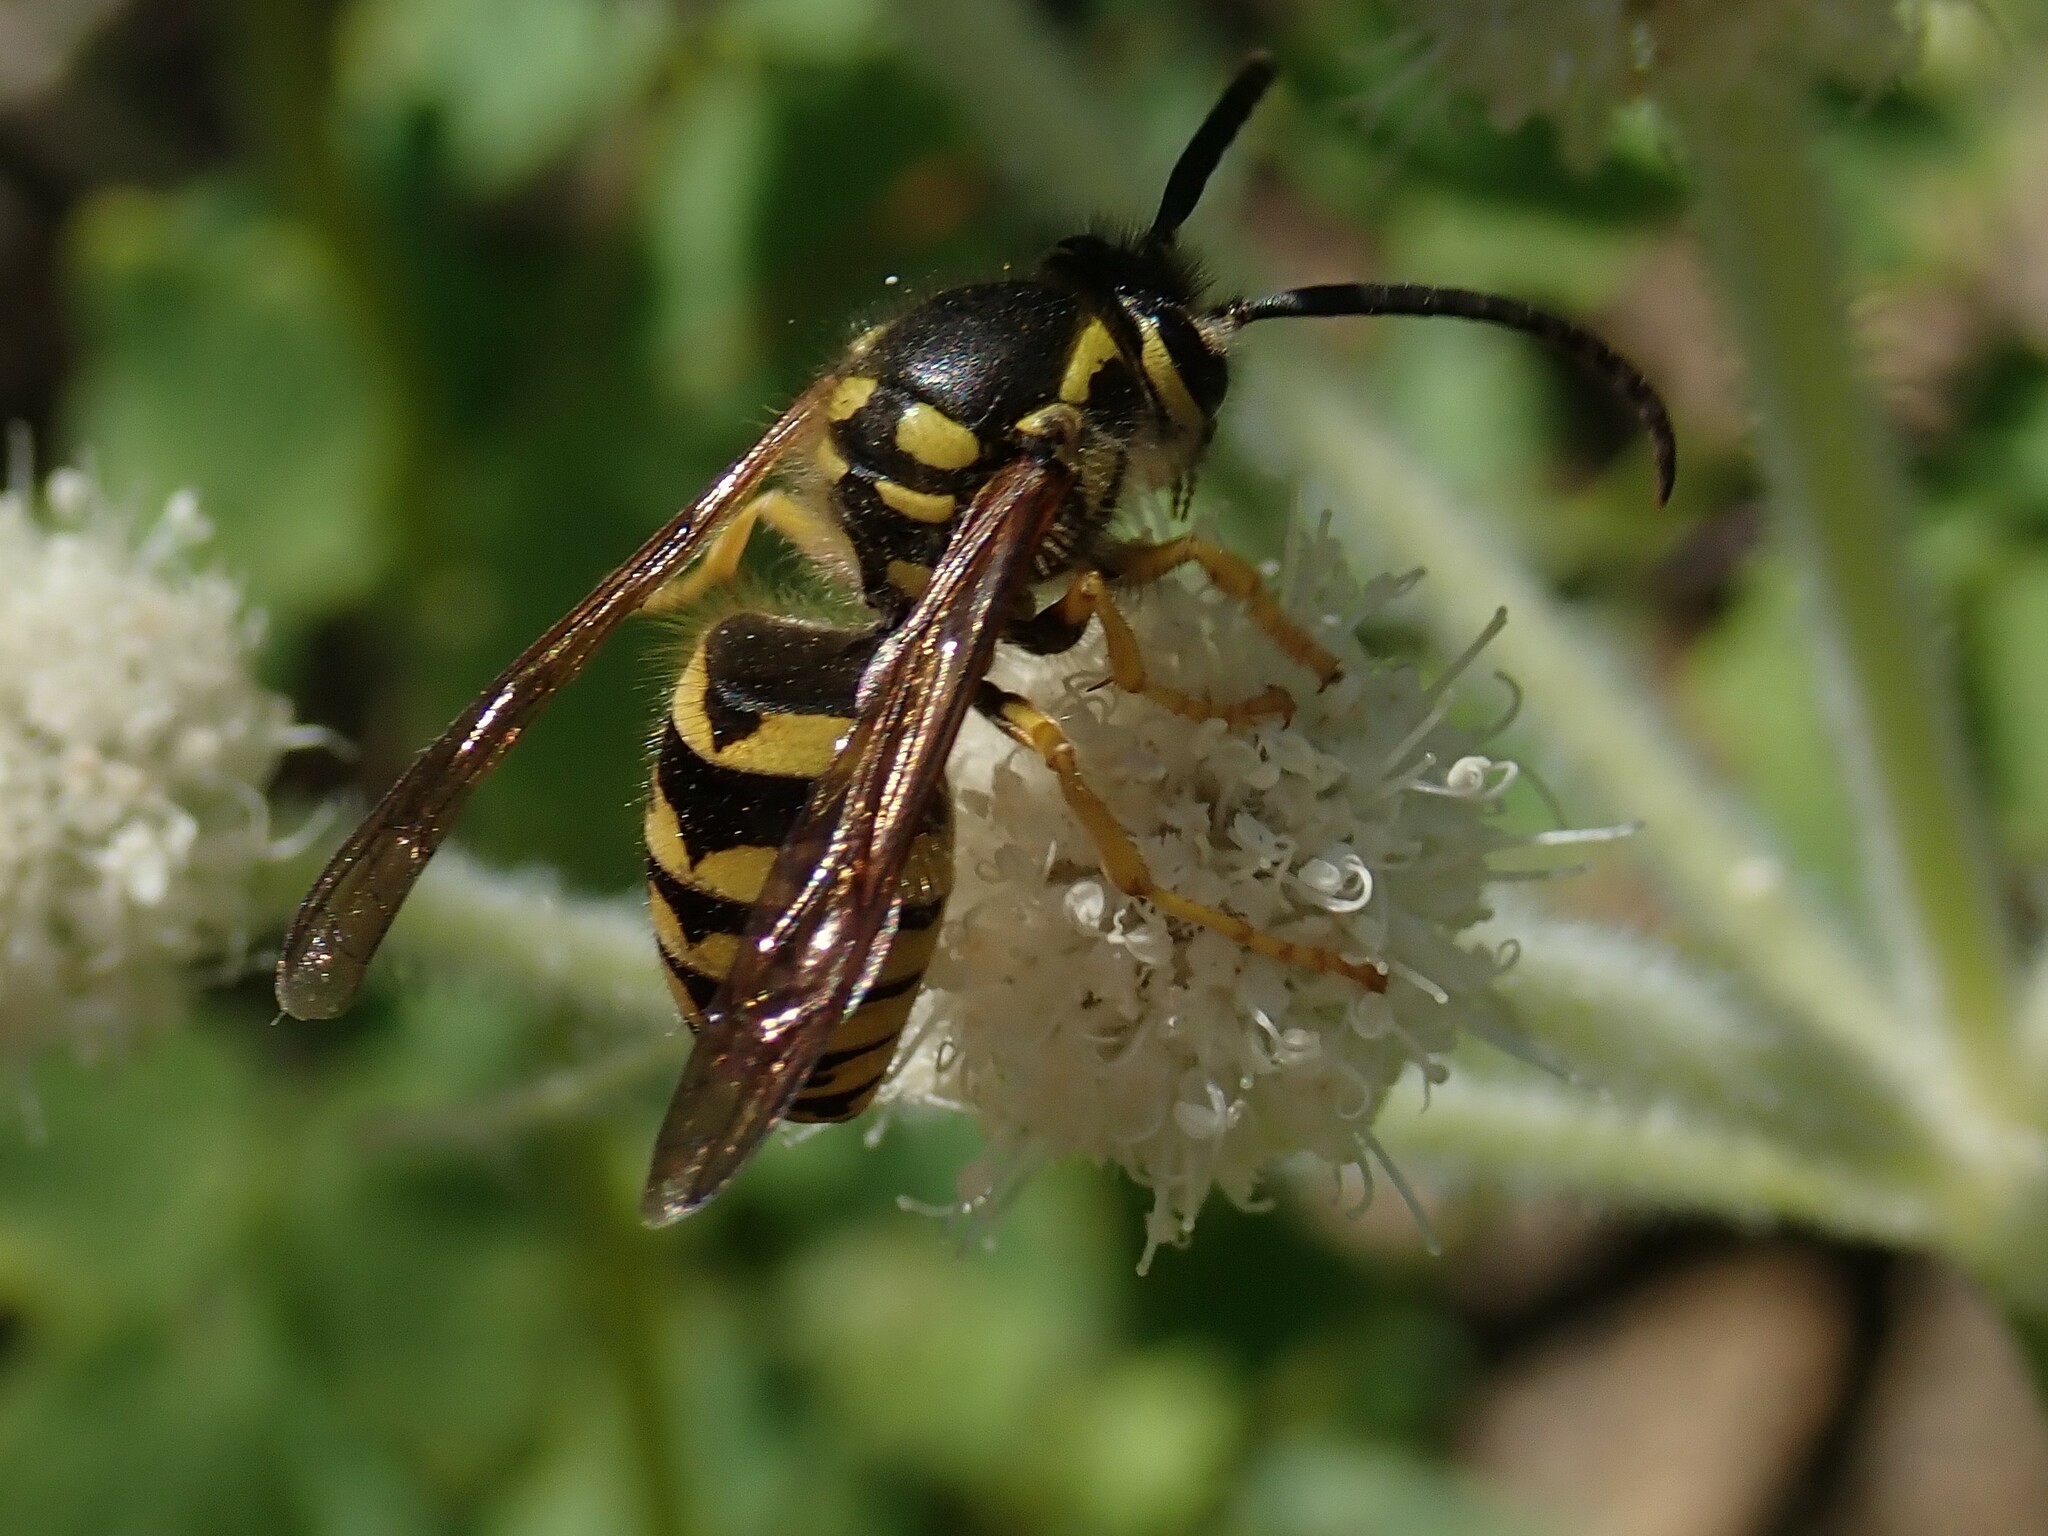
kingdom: Animalia
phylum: Arthropoda
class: Insecta
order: Hymenoptera
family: Vespidae
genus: Dolichovespula
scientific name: Dolichovespula arenaria
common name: Aerial yellowjacket
